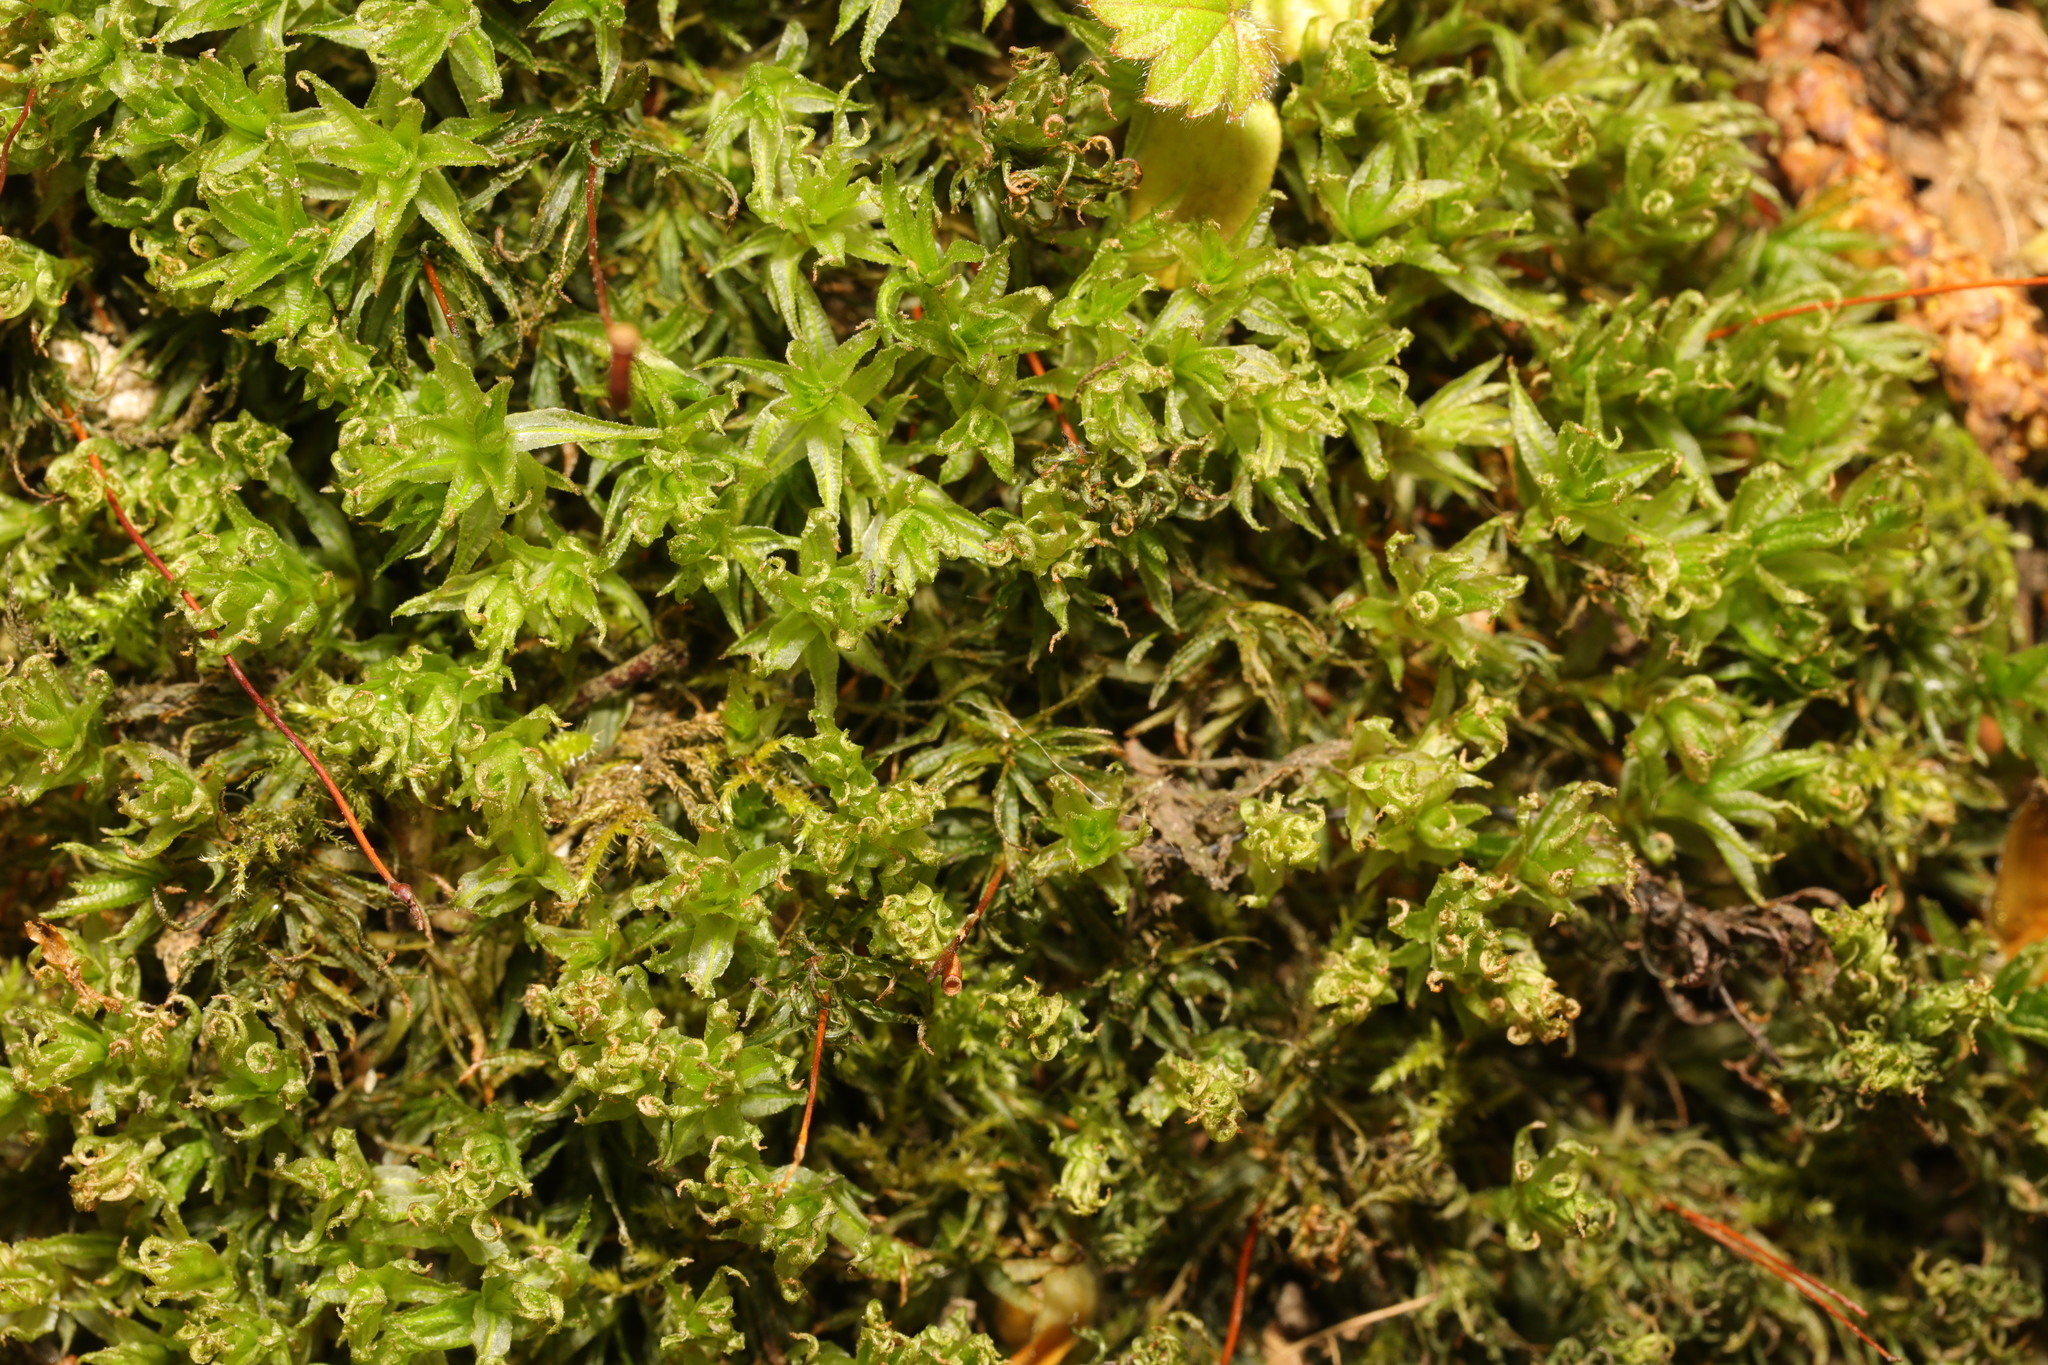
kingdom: Plantae
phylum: Bryophyta
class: Polytrichopsida
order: Polytrichales
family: Polytrichaceae
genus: Atrichum
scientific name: Atrichum undulatum
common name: Common smoothcap
